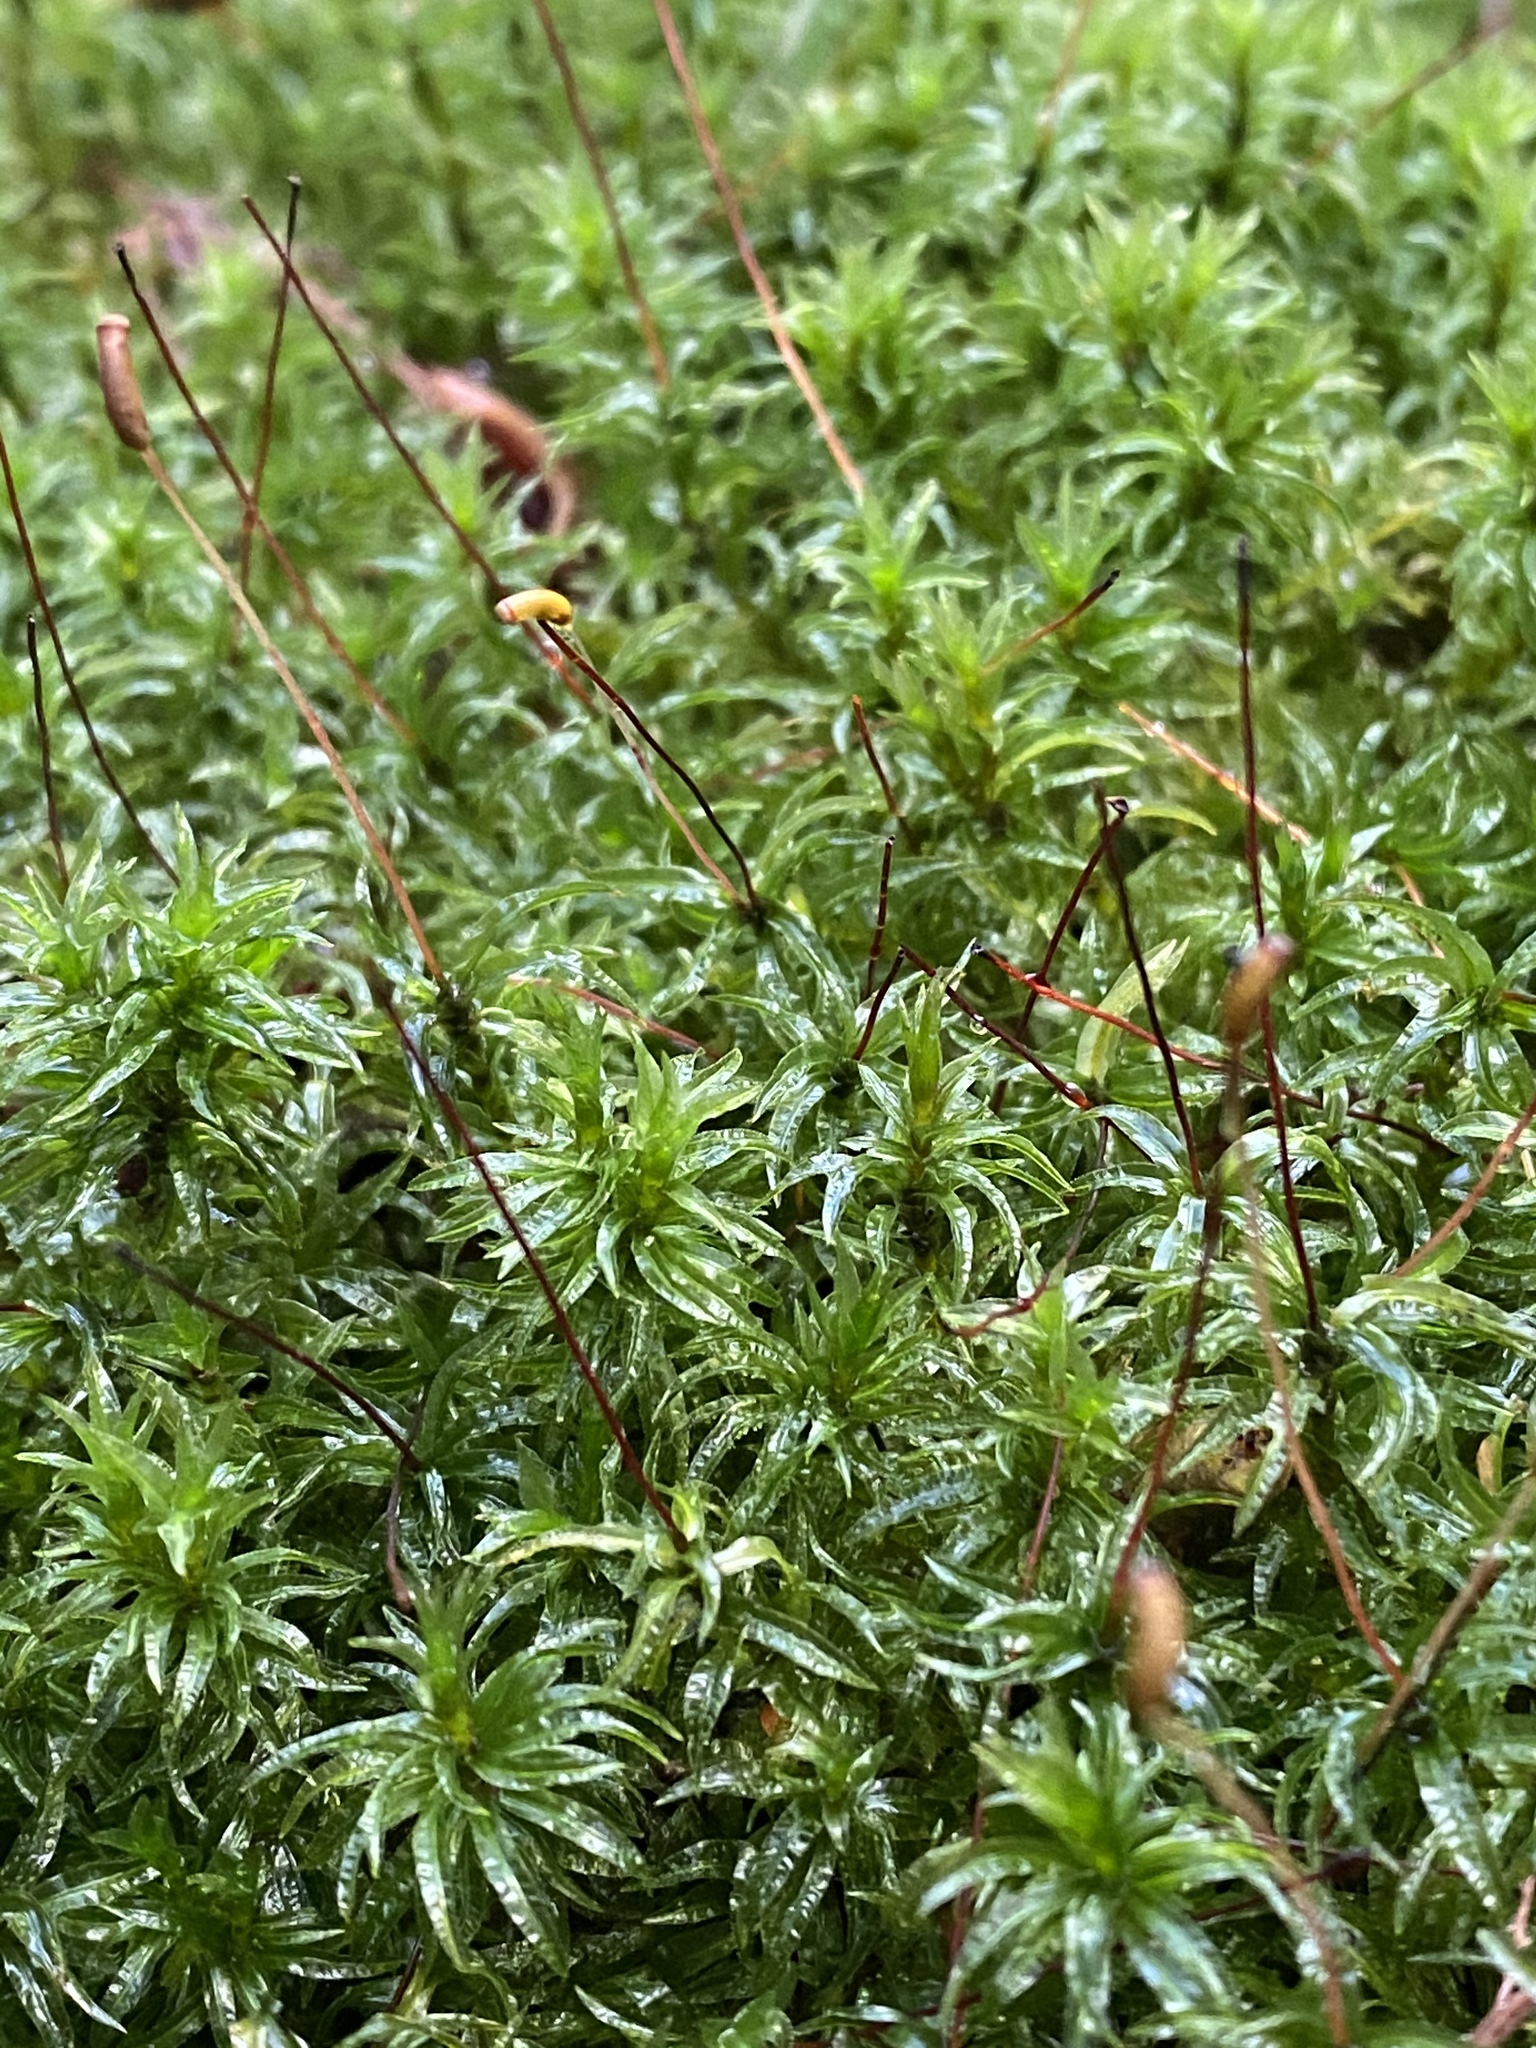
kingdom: Plantae
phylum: Bryophyta
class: Polytrichopsida
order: Polytrichales
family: Polytrichaceae
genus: Atrichum
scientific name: Atrichum undulatum
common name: Common smoothcap
